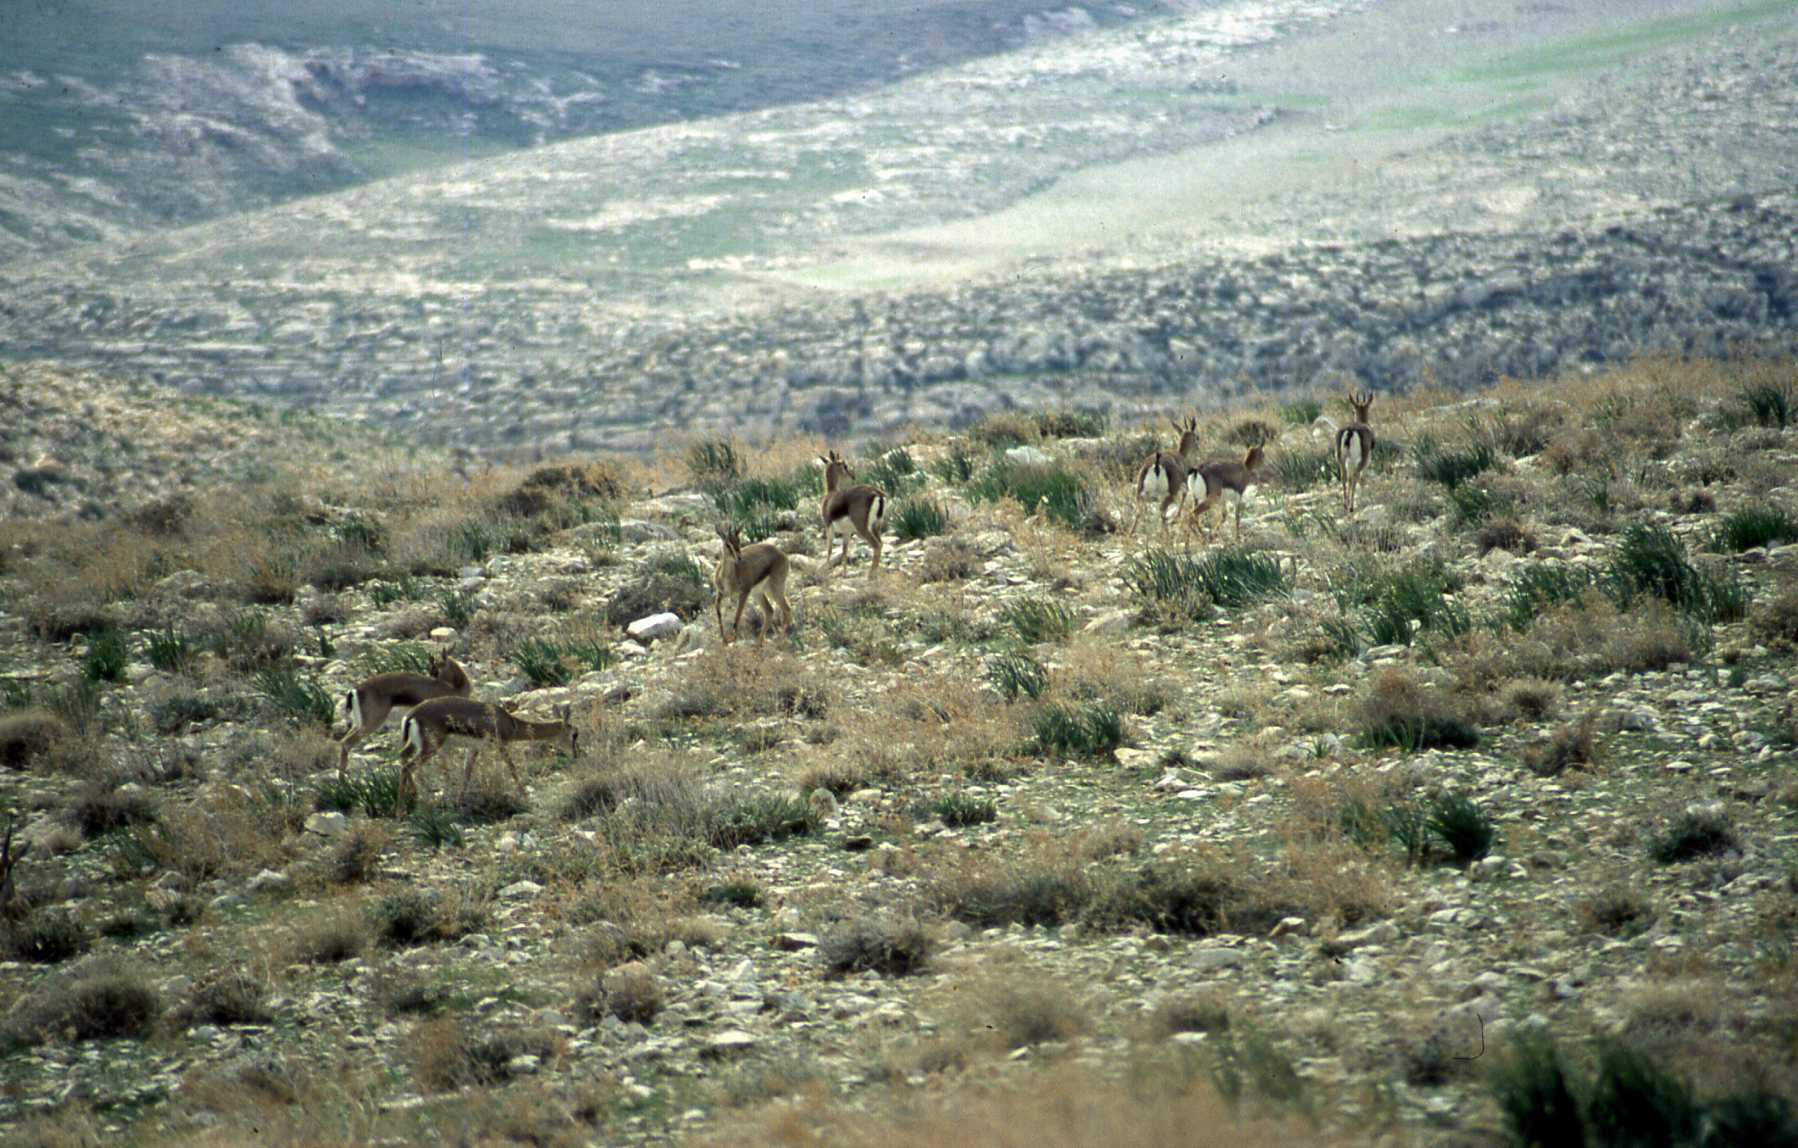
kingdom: Animalia
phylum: Chordata
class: Mammalia
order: Artiodactyla
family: Bovidae
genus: Gazella
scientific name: Gazella gazella
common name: Mountain gazelle
